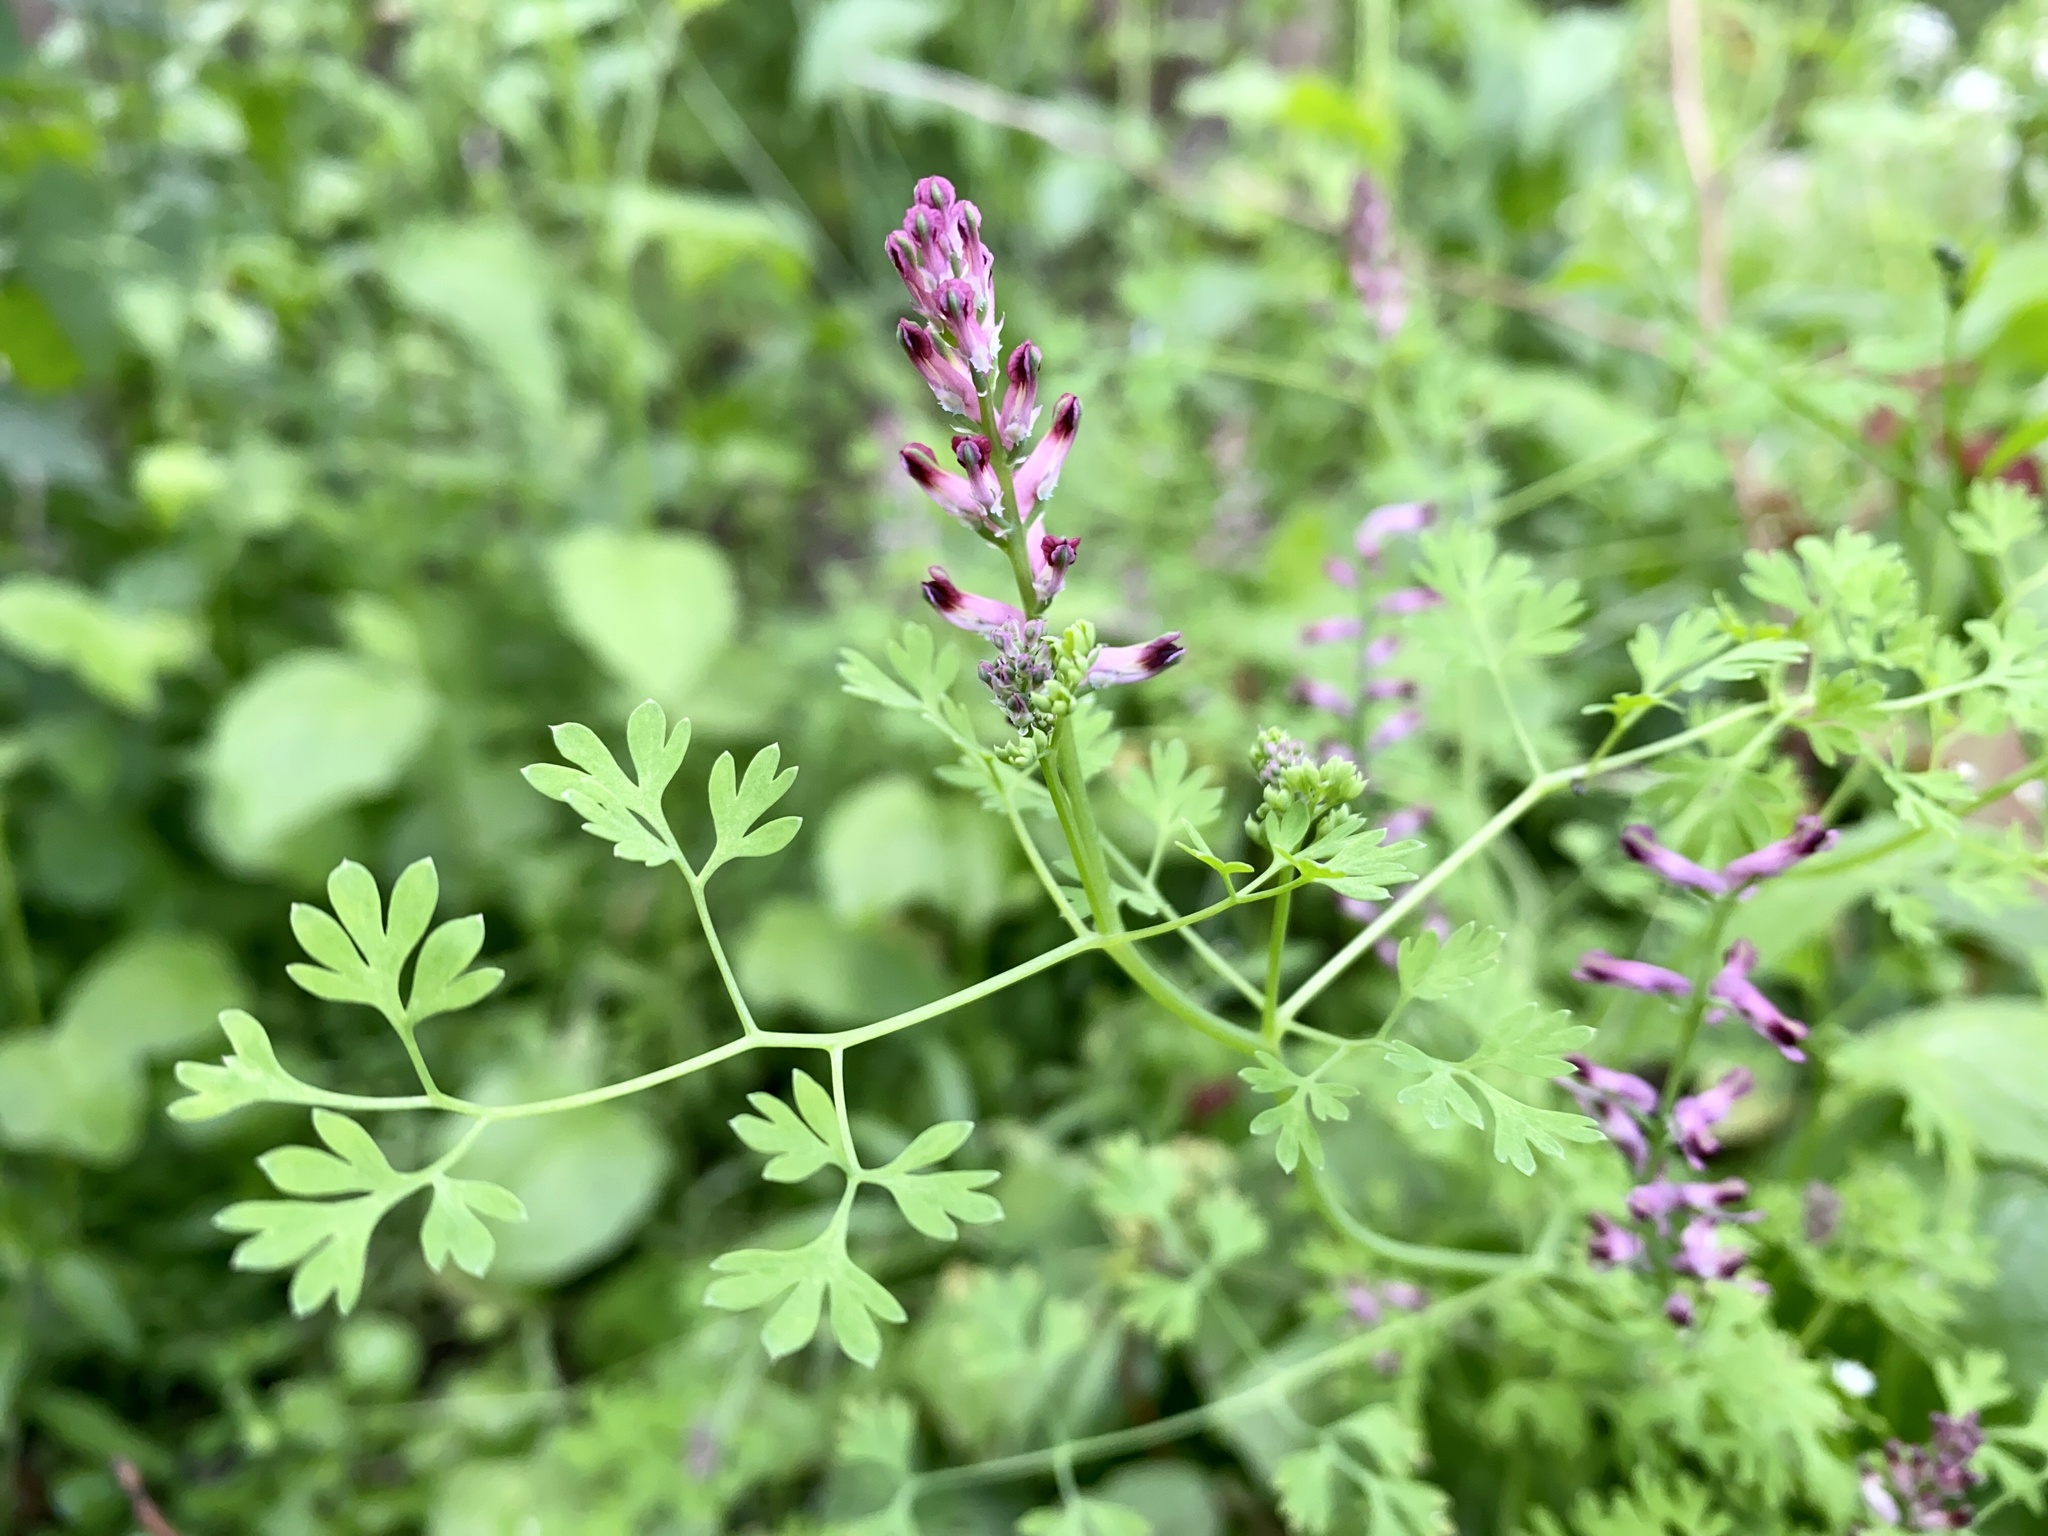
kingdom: Plantae
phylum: Tracheophyta
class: Magnoliopsida
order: Ranunculales
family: Papaveraceae
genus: Fumaria
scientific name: Fumaria officinalis
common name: Common fumitory
